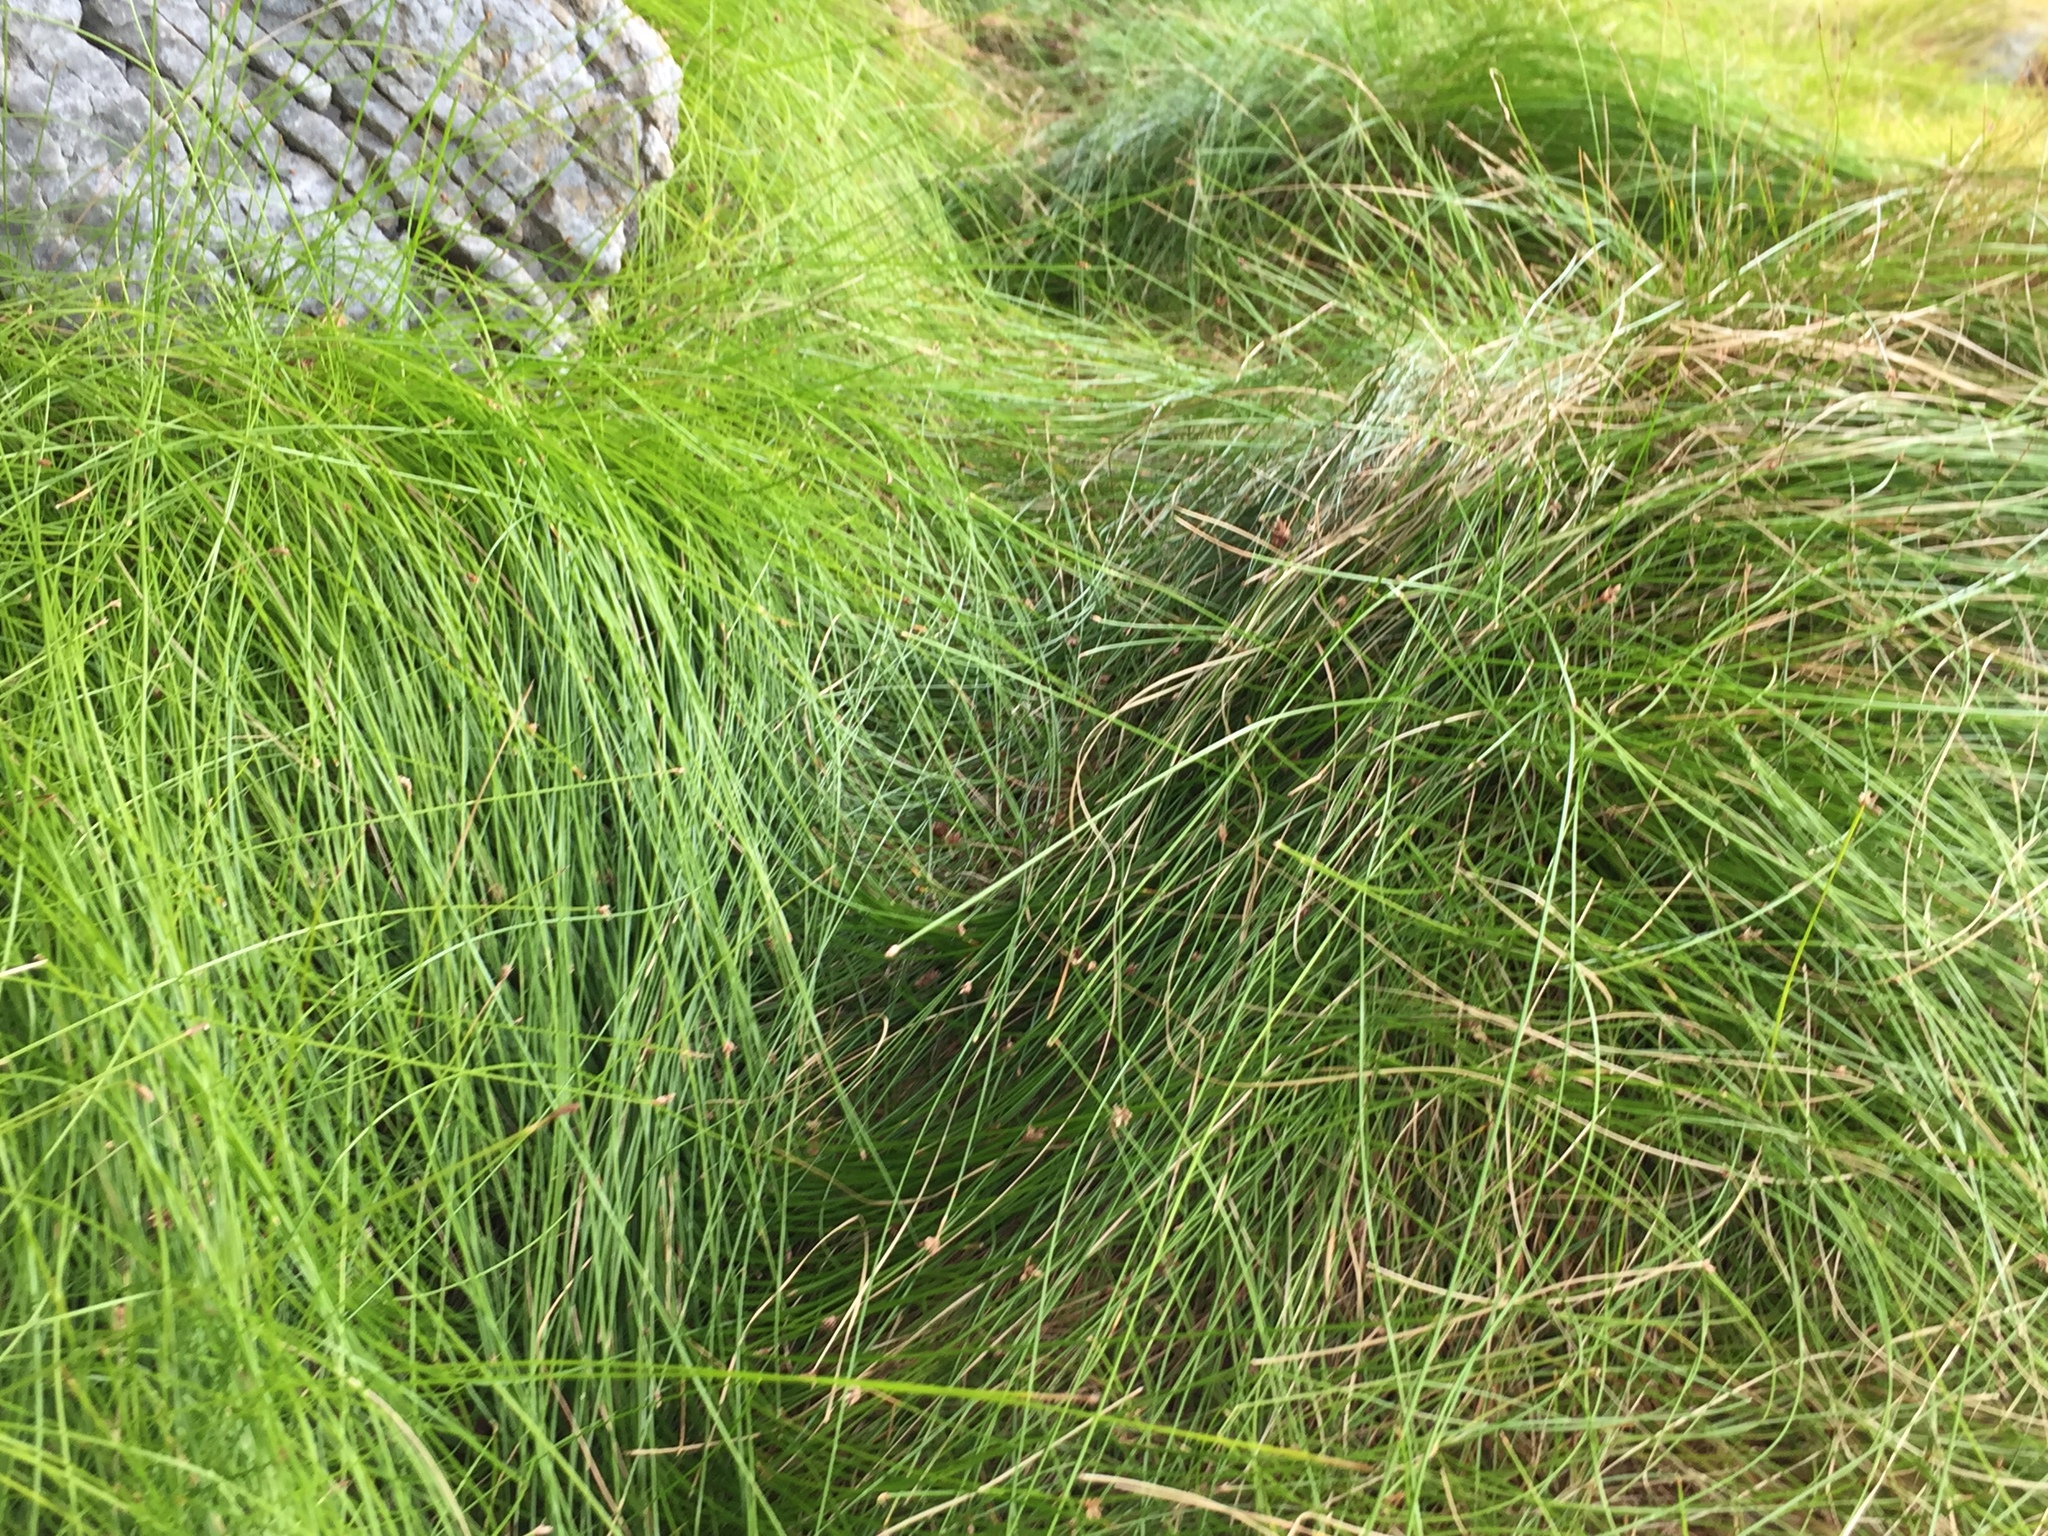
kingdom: Plantae
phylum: Tracheophyta
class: Liliopsida
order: Poales
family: Cyperaceae
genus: Ficinia
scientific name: Ficinia brevifolia
